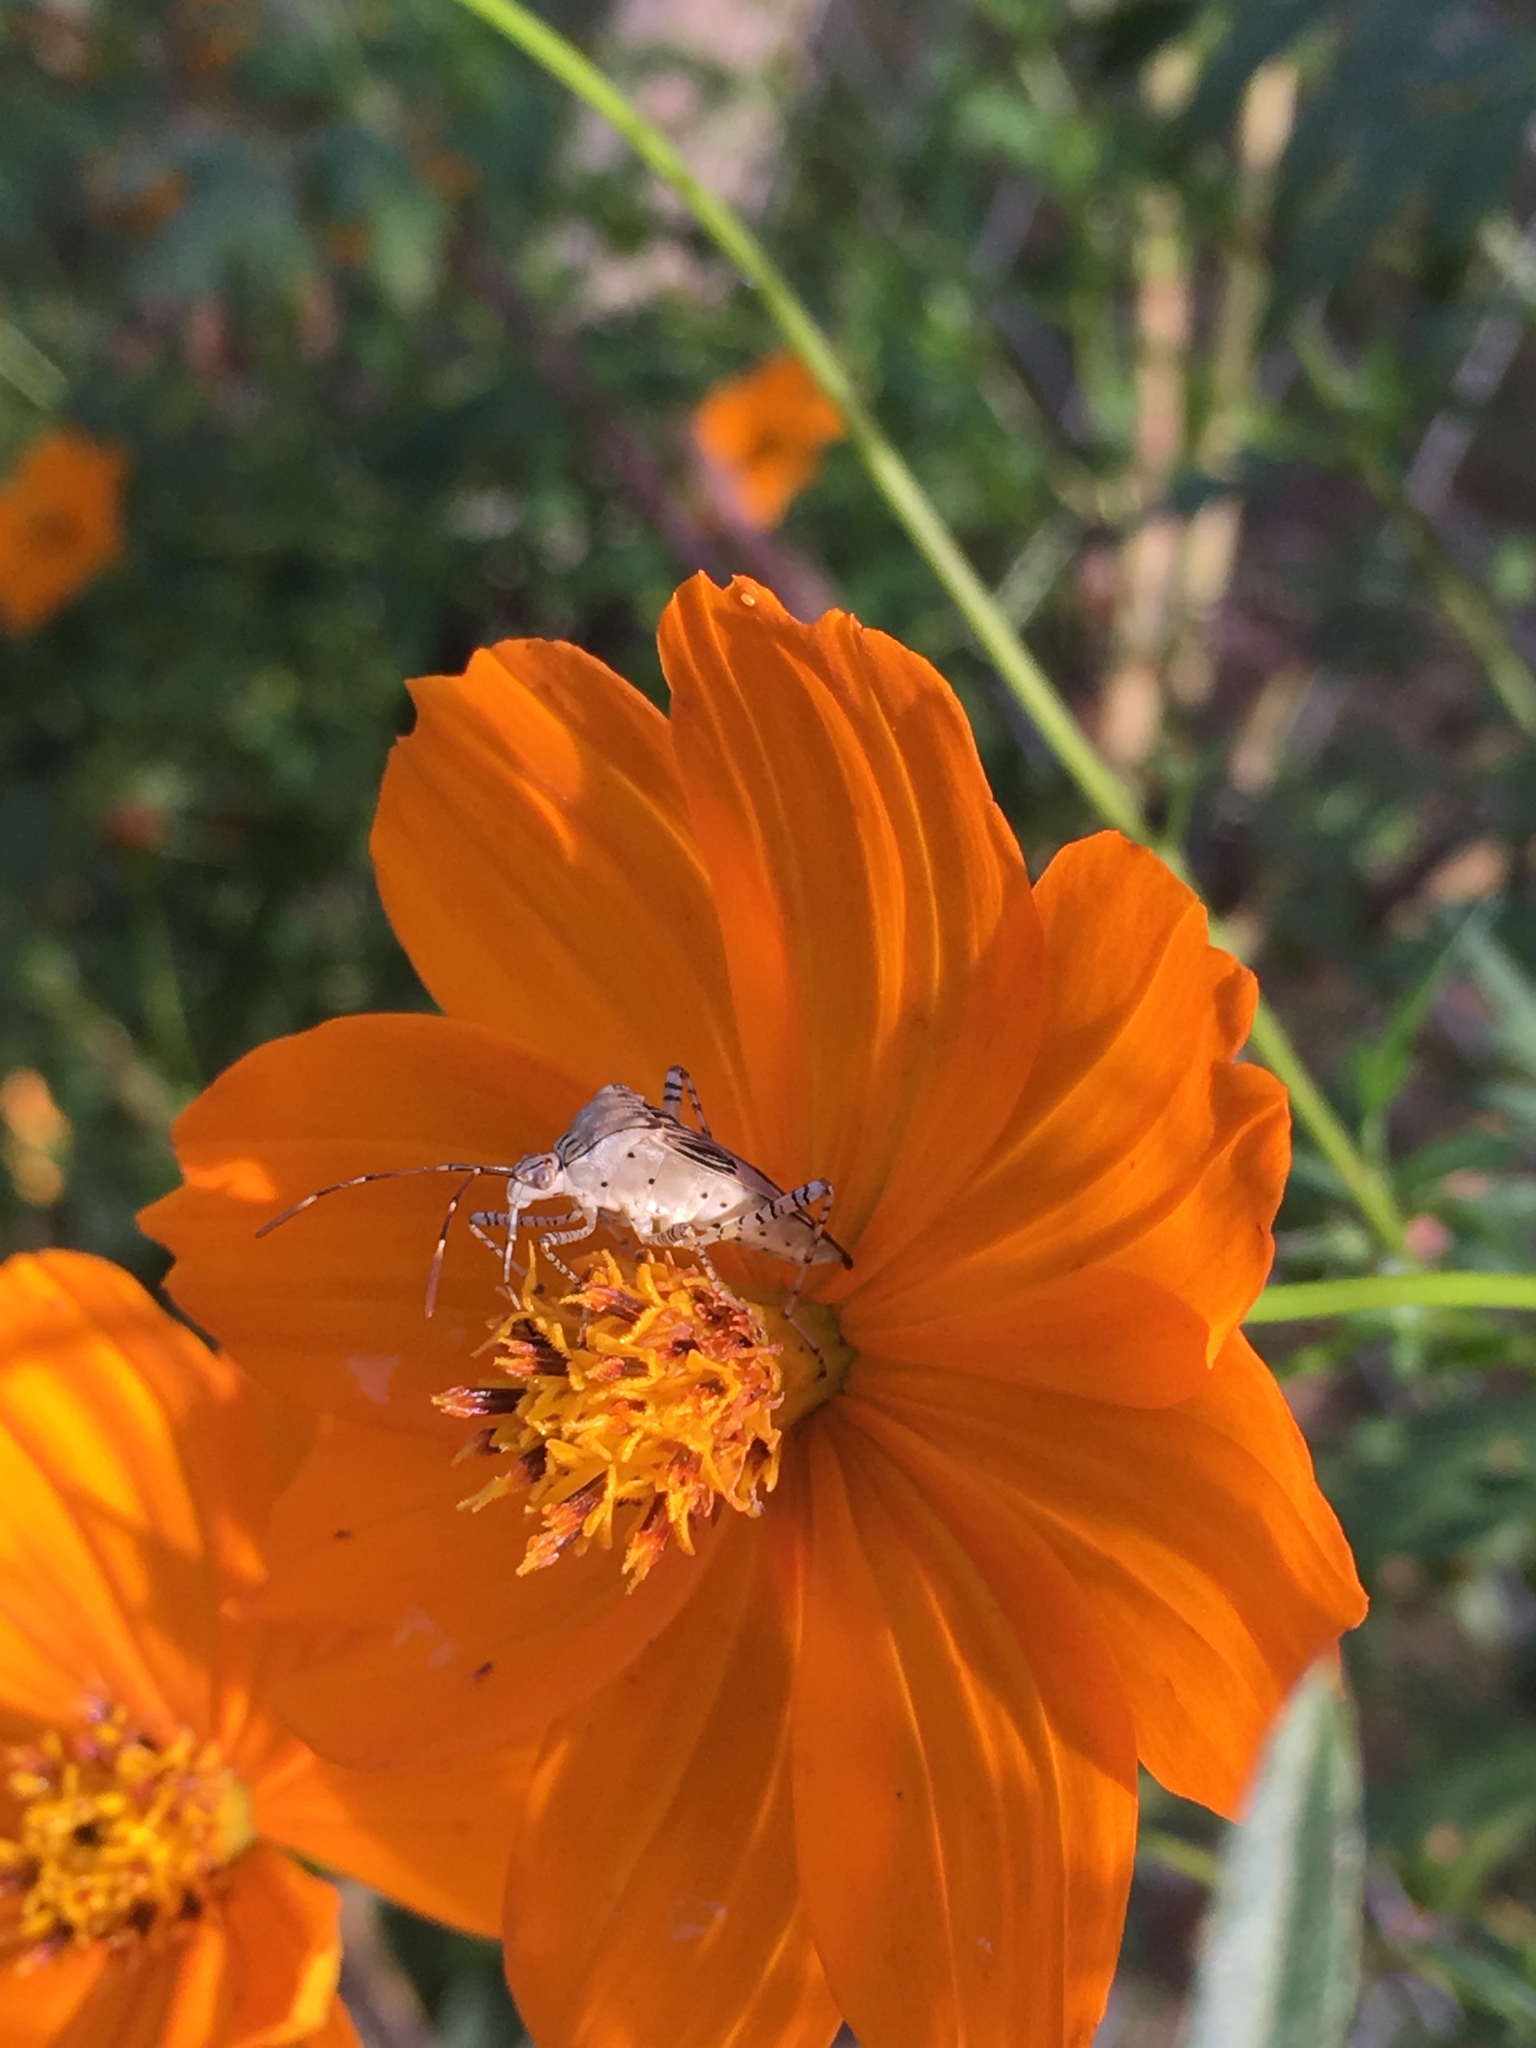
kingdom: Animalia
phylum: Arthropoda
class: Insecta
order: Hemiptera
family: Coreidae
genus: Hypselonotus
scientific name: Hypselonotus punctiventris
